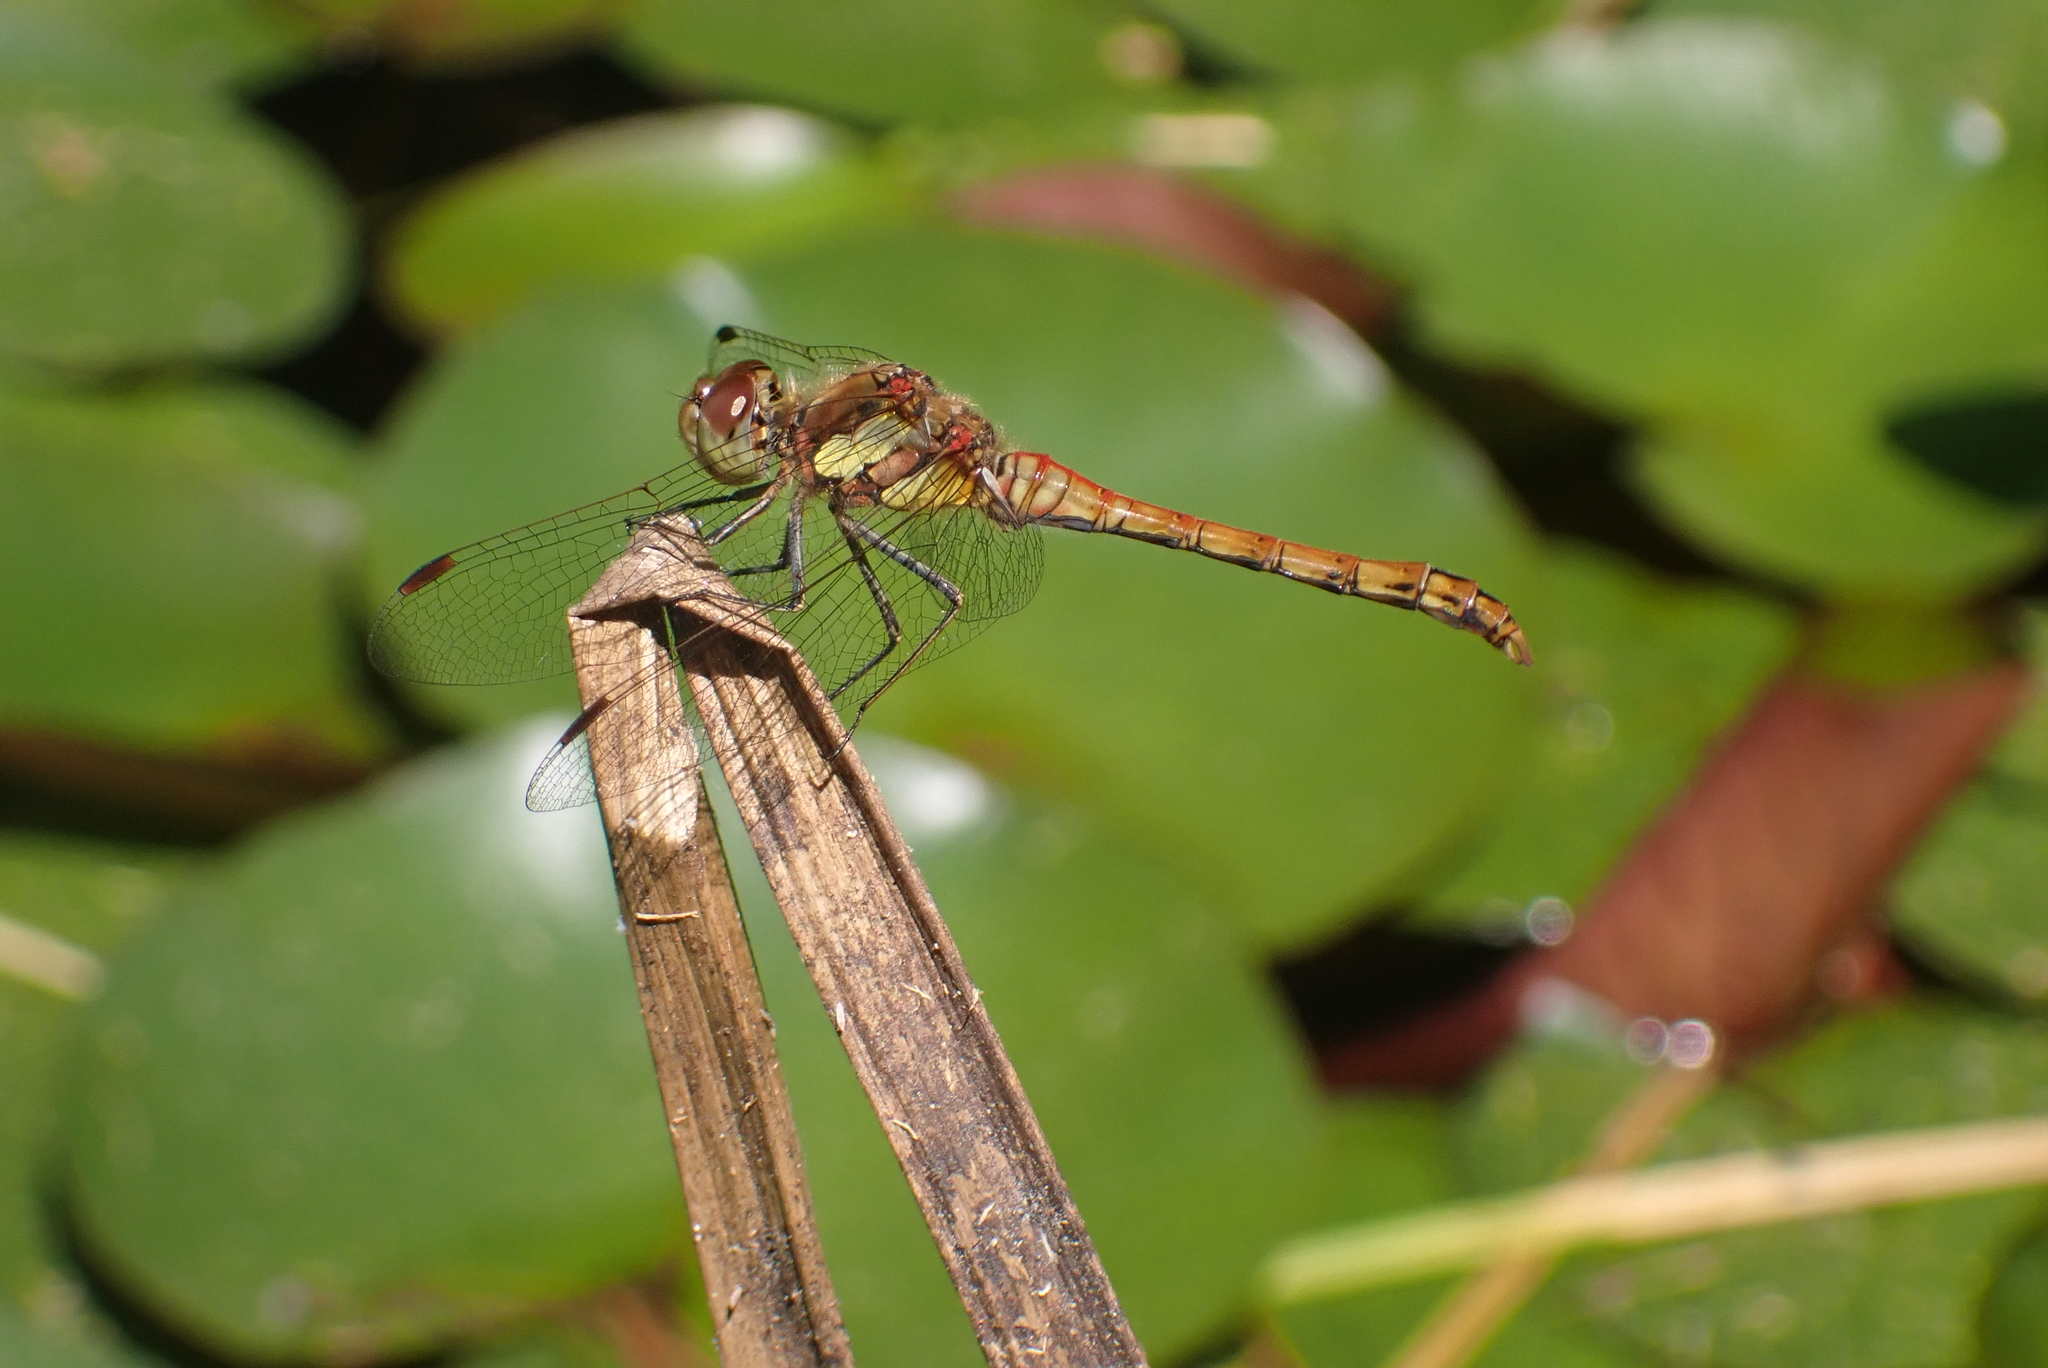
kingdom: Animalia
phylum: Arthropoda
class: Insecta
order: Odonata
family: Libellulidae
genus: Sympetrum
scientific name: Sympetrum striolatum
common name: Common darter
